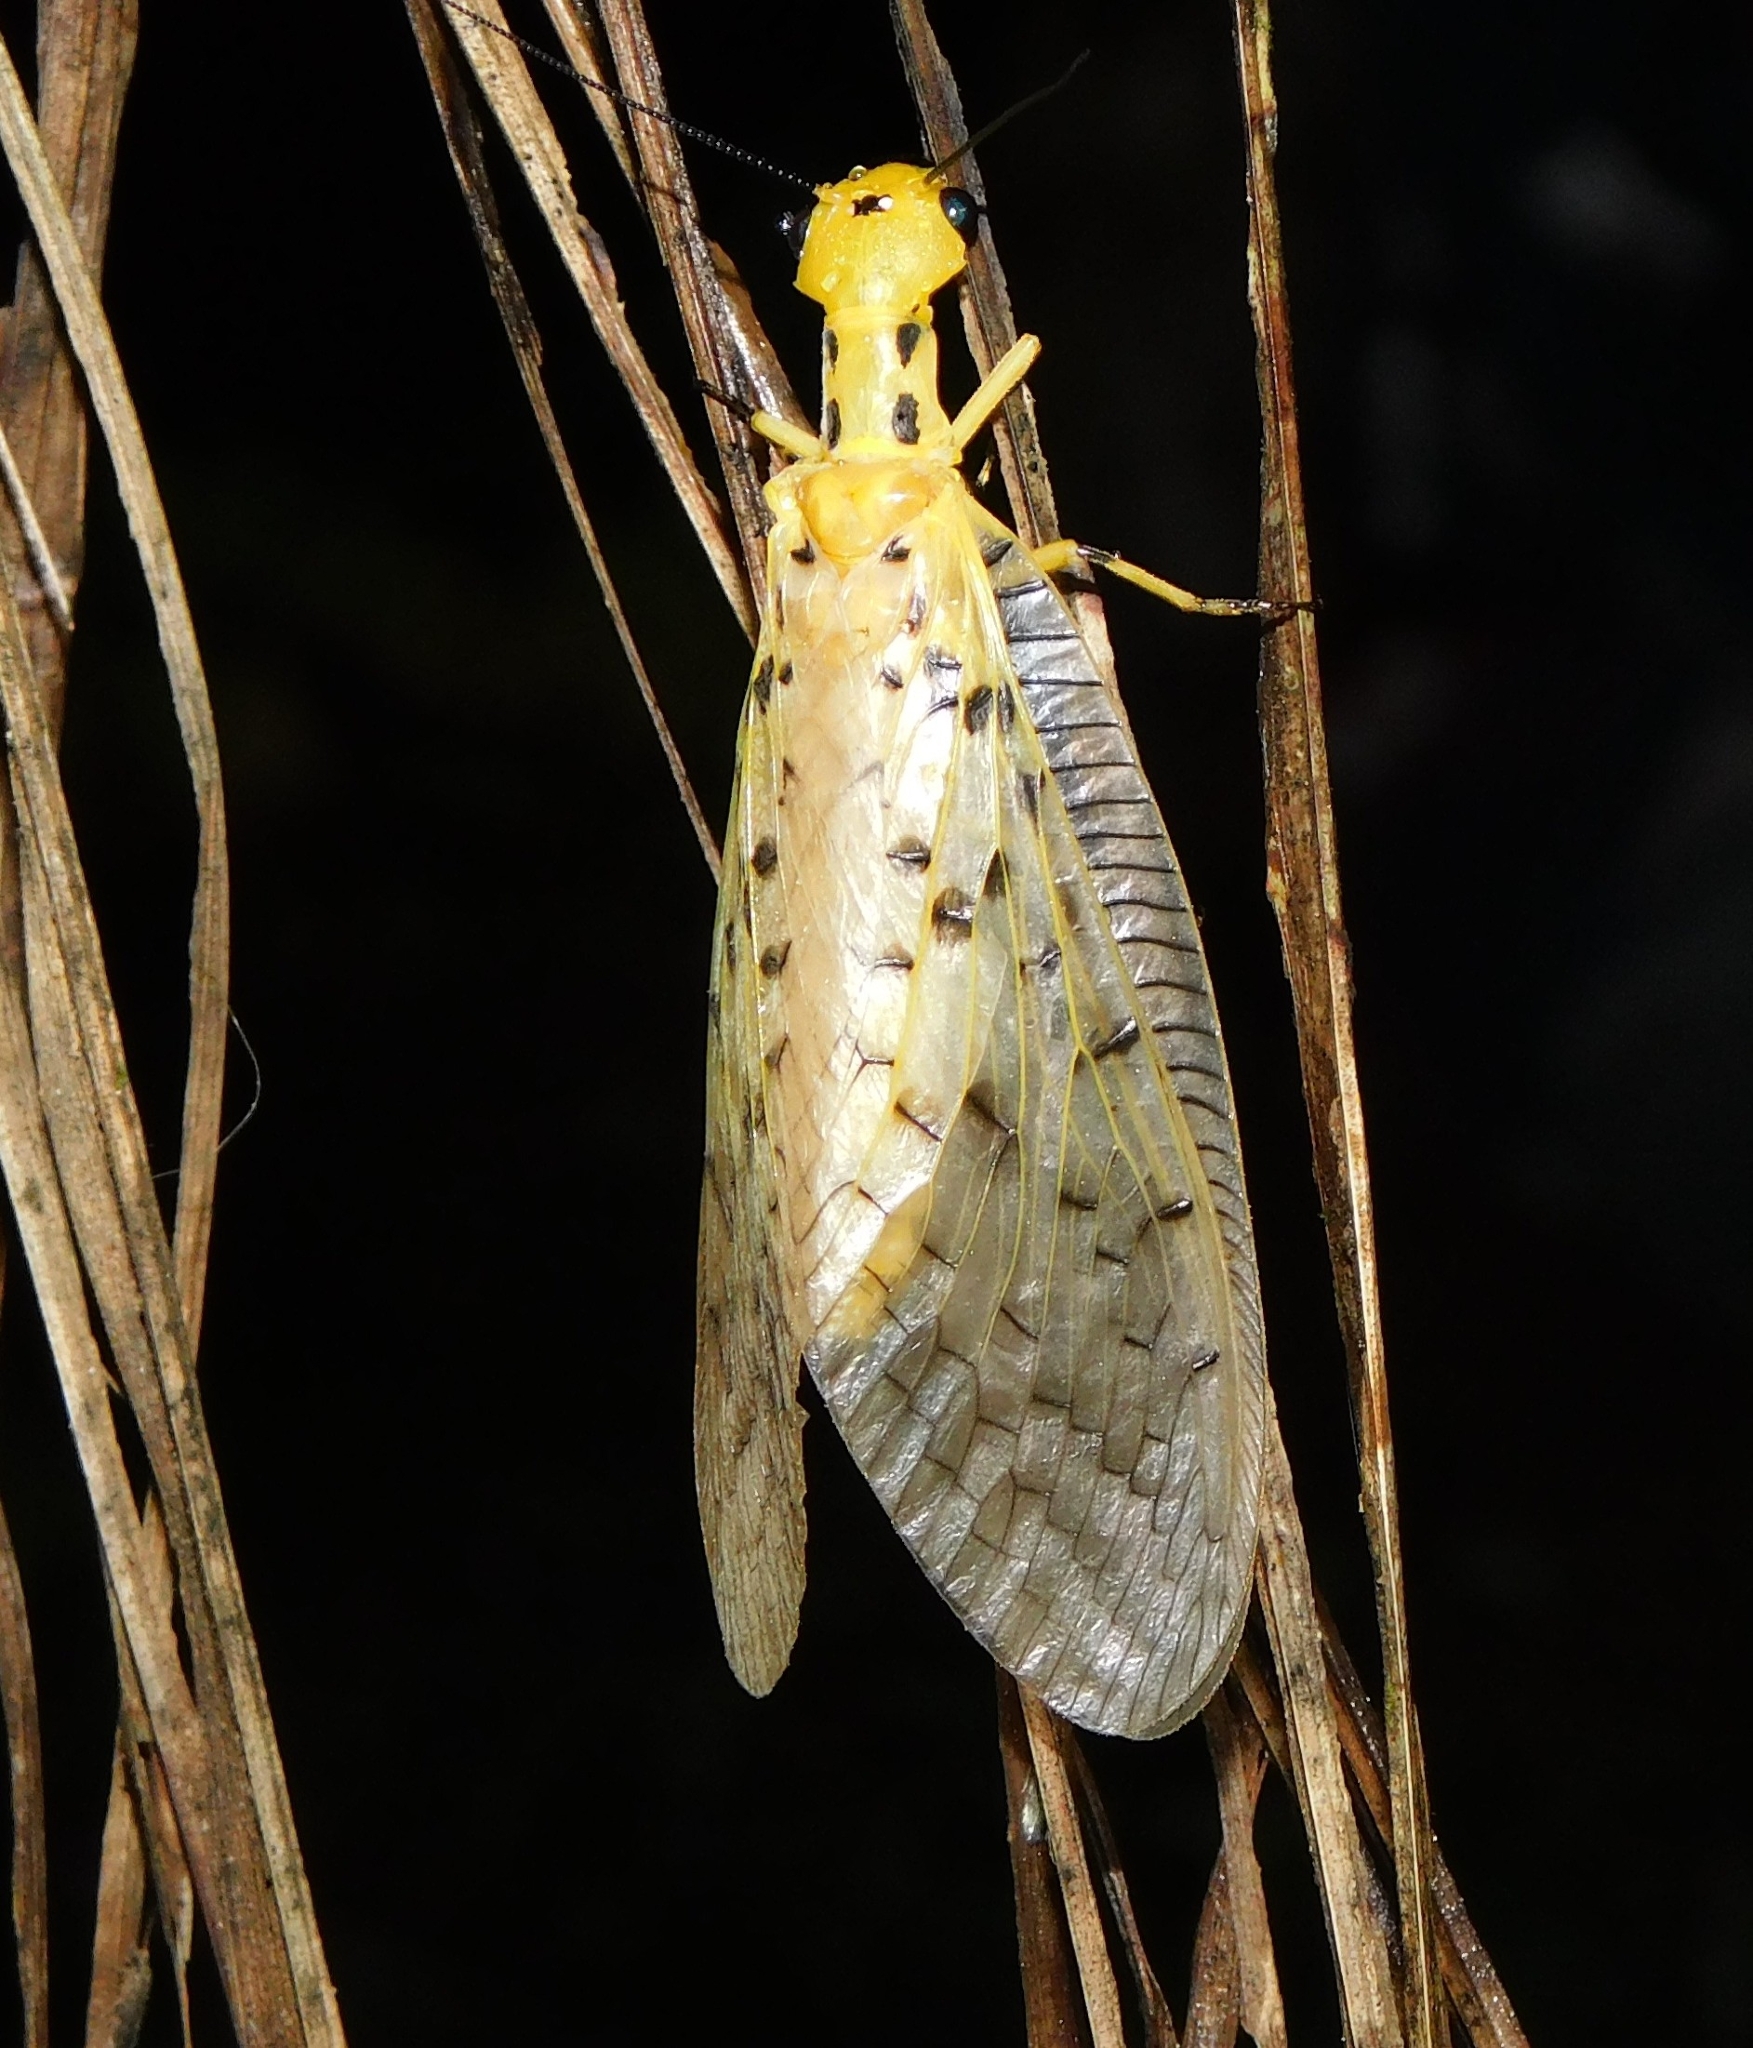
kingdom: Animalia
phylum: Arthropoda
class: Insecta
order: Megaloptera
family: Corydalidae
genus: Nevromus
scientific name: Nevromus austroindicus
